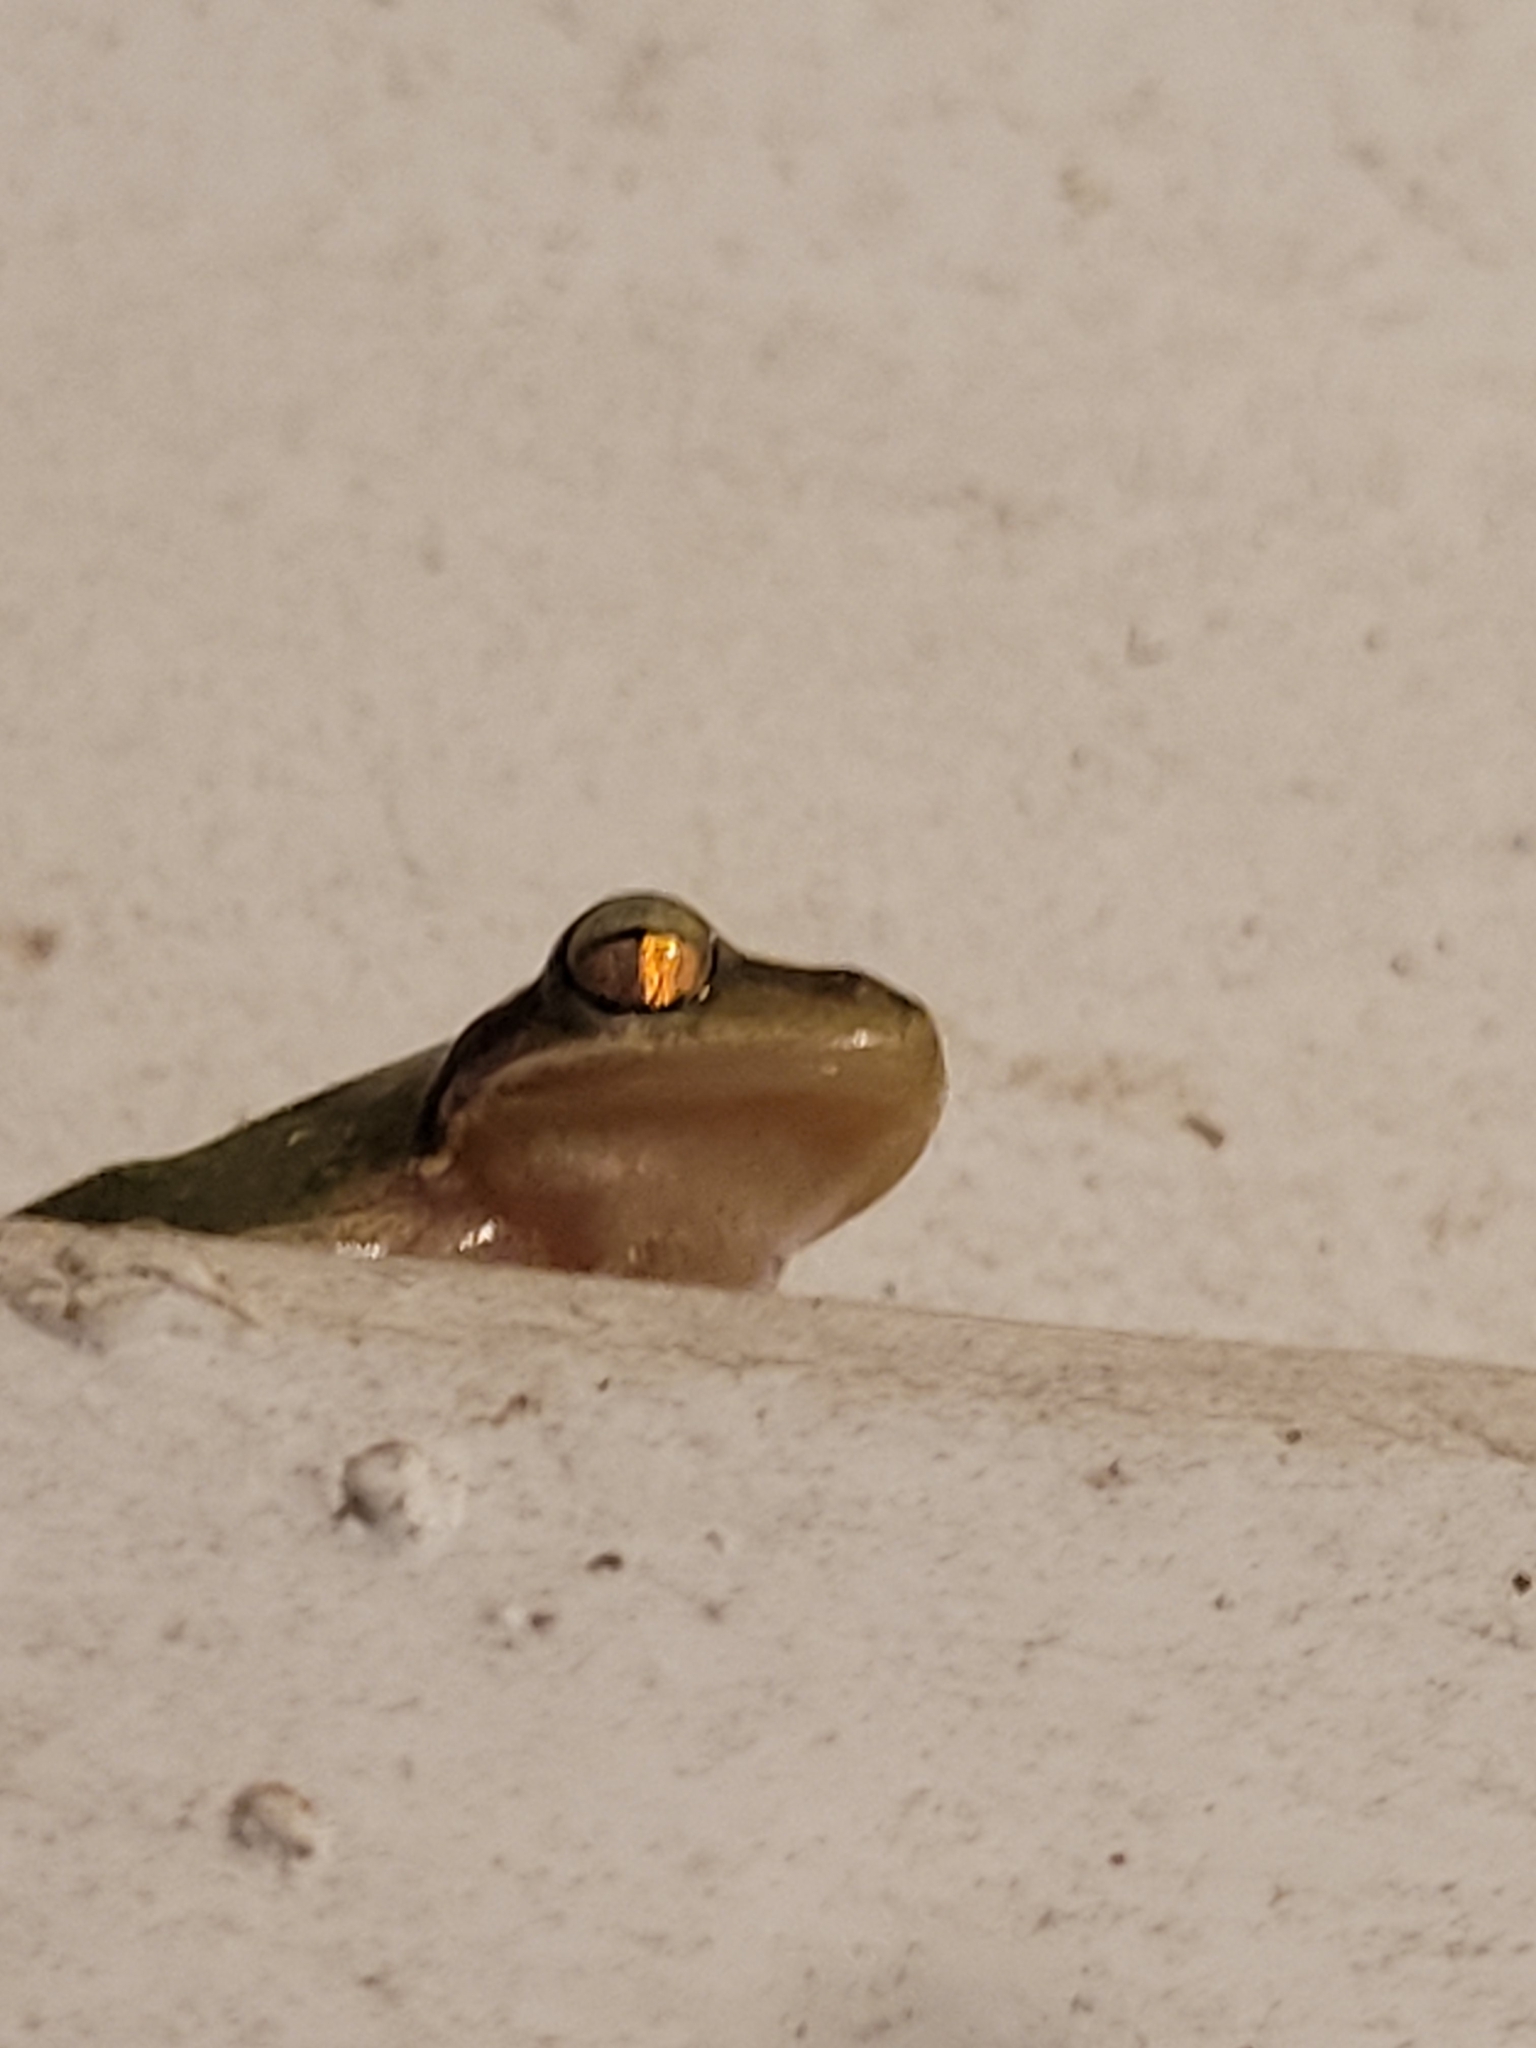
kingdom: Animalia
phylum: Chordata
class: Amphibia
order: Anura
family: Hylidae
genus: Dryophytes
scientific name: Dryophytes squirellus
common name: Squirrel treefrog
